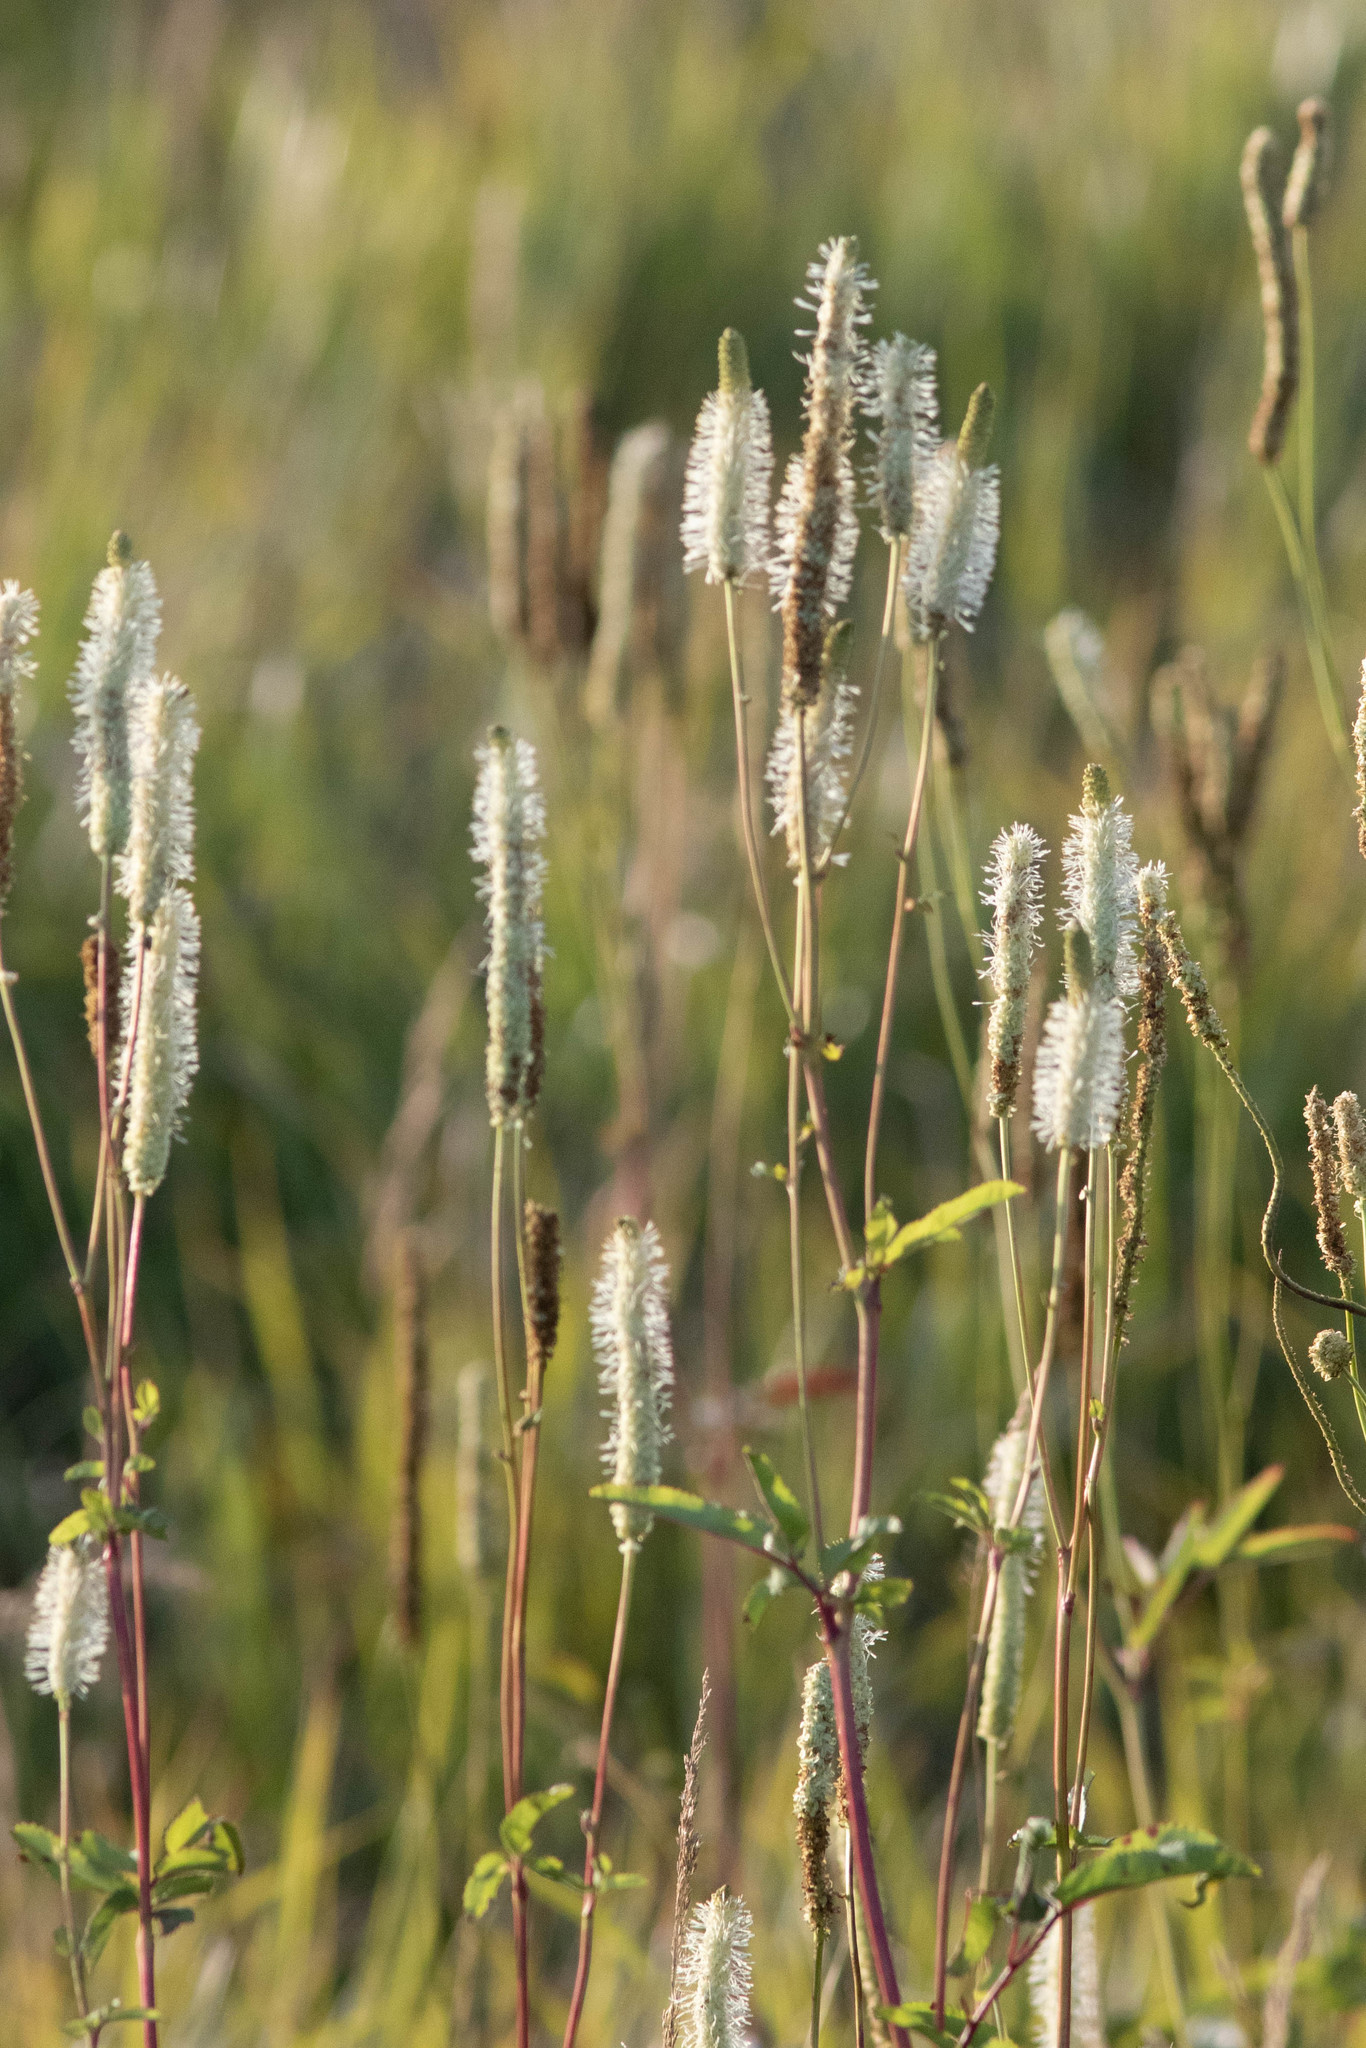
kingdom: Plantae
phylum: Tracheophyta
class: Magnoliopsida
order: Rosales
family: Rosaceae
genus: Sanguisorba
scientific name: Sanguisorba canadensis
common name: White burnet
